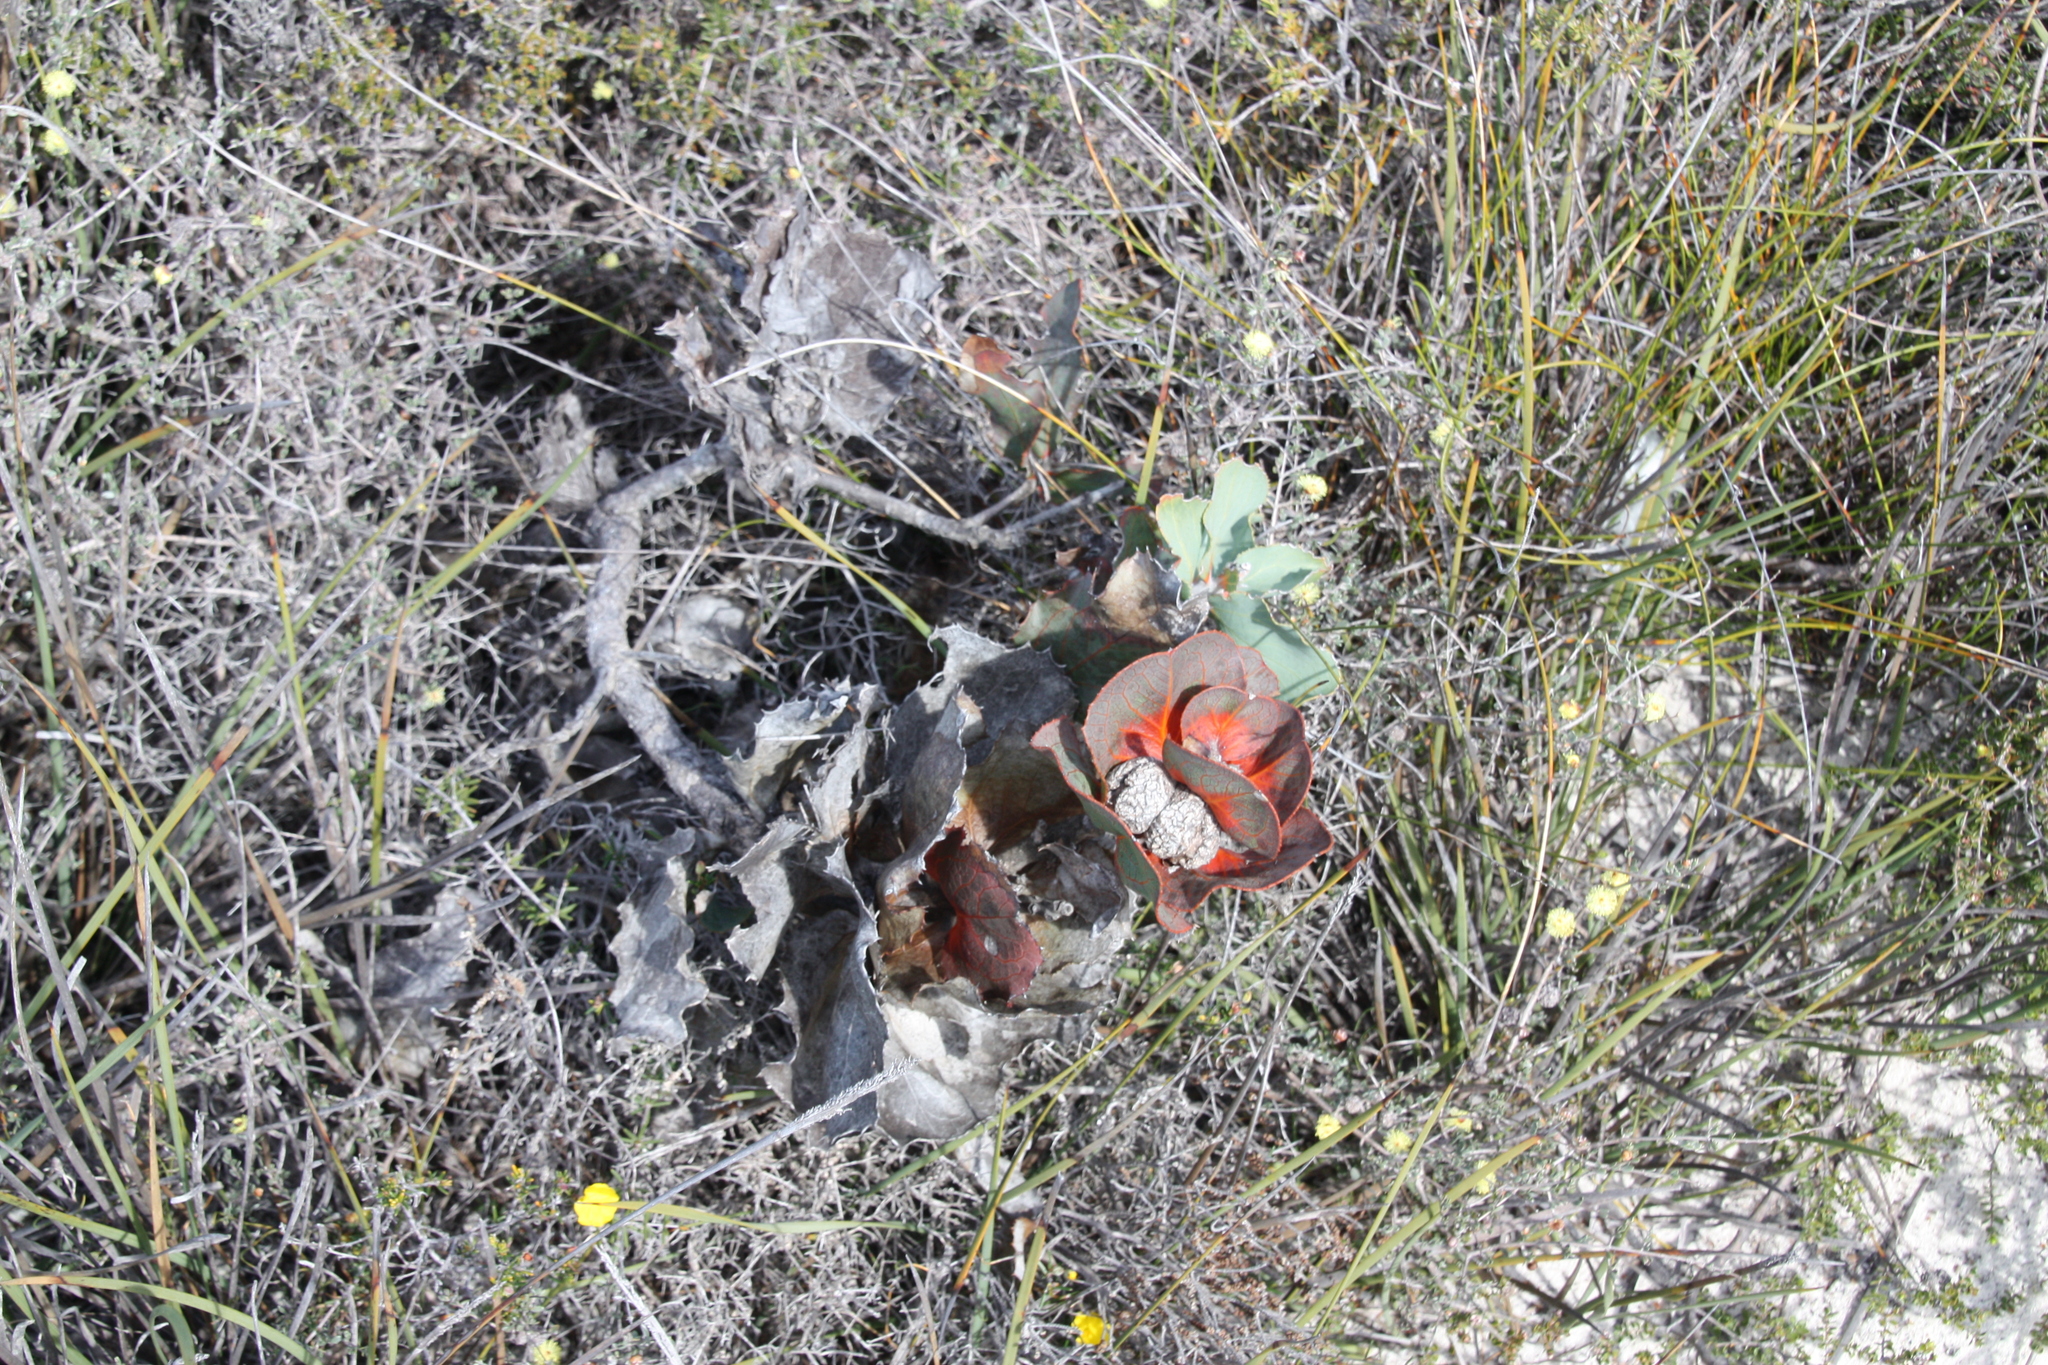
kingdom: Plantae
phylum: Tracheophyta
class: Magnoliopsida
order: Proteales
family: Proteaceae
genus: Hakea
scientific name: Hakea victoria
